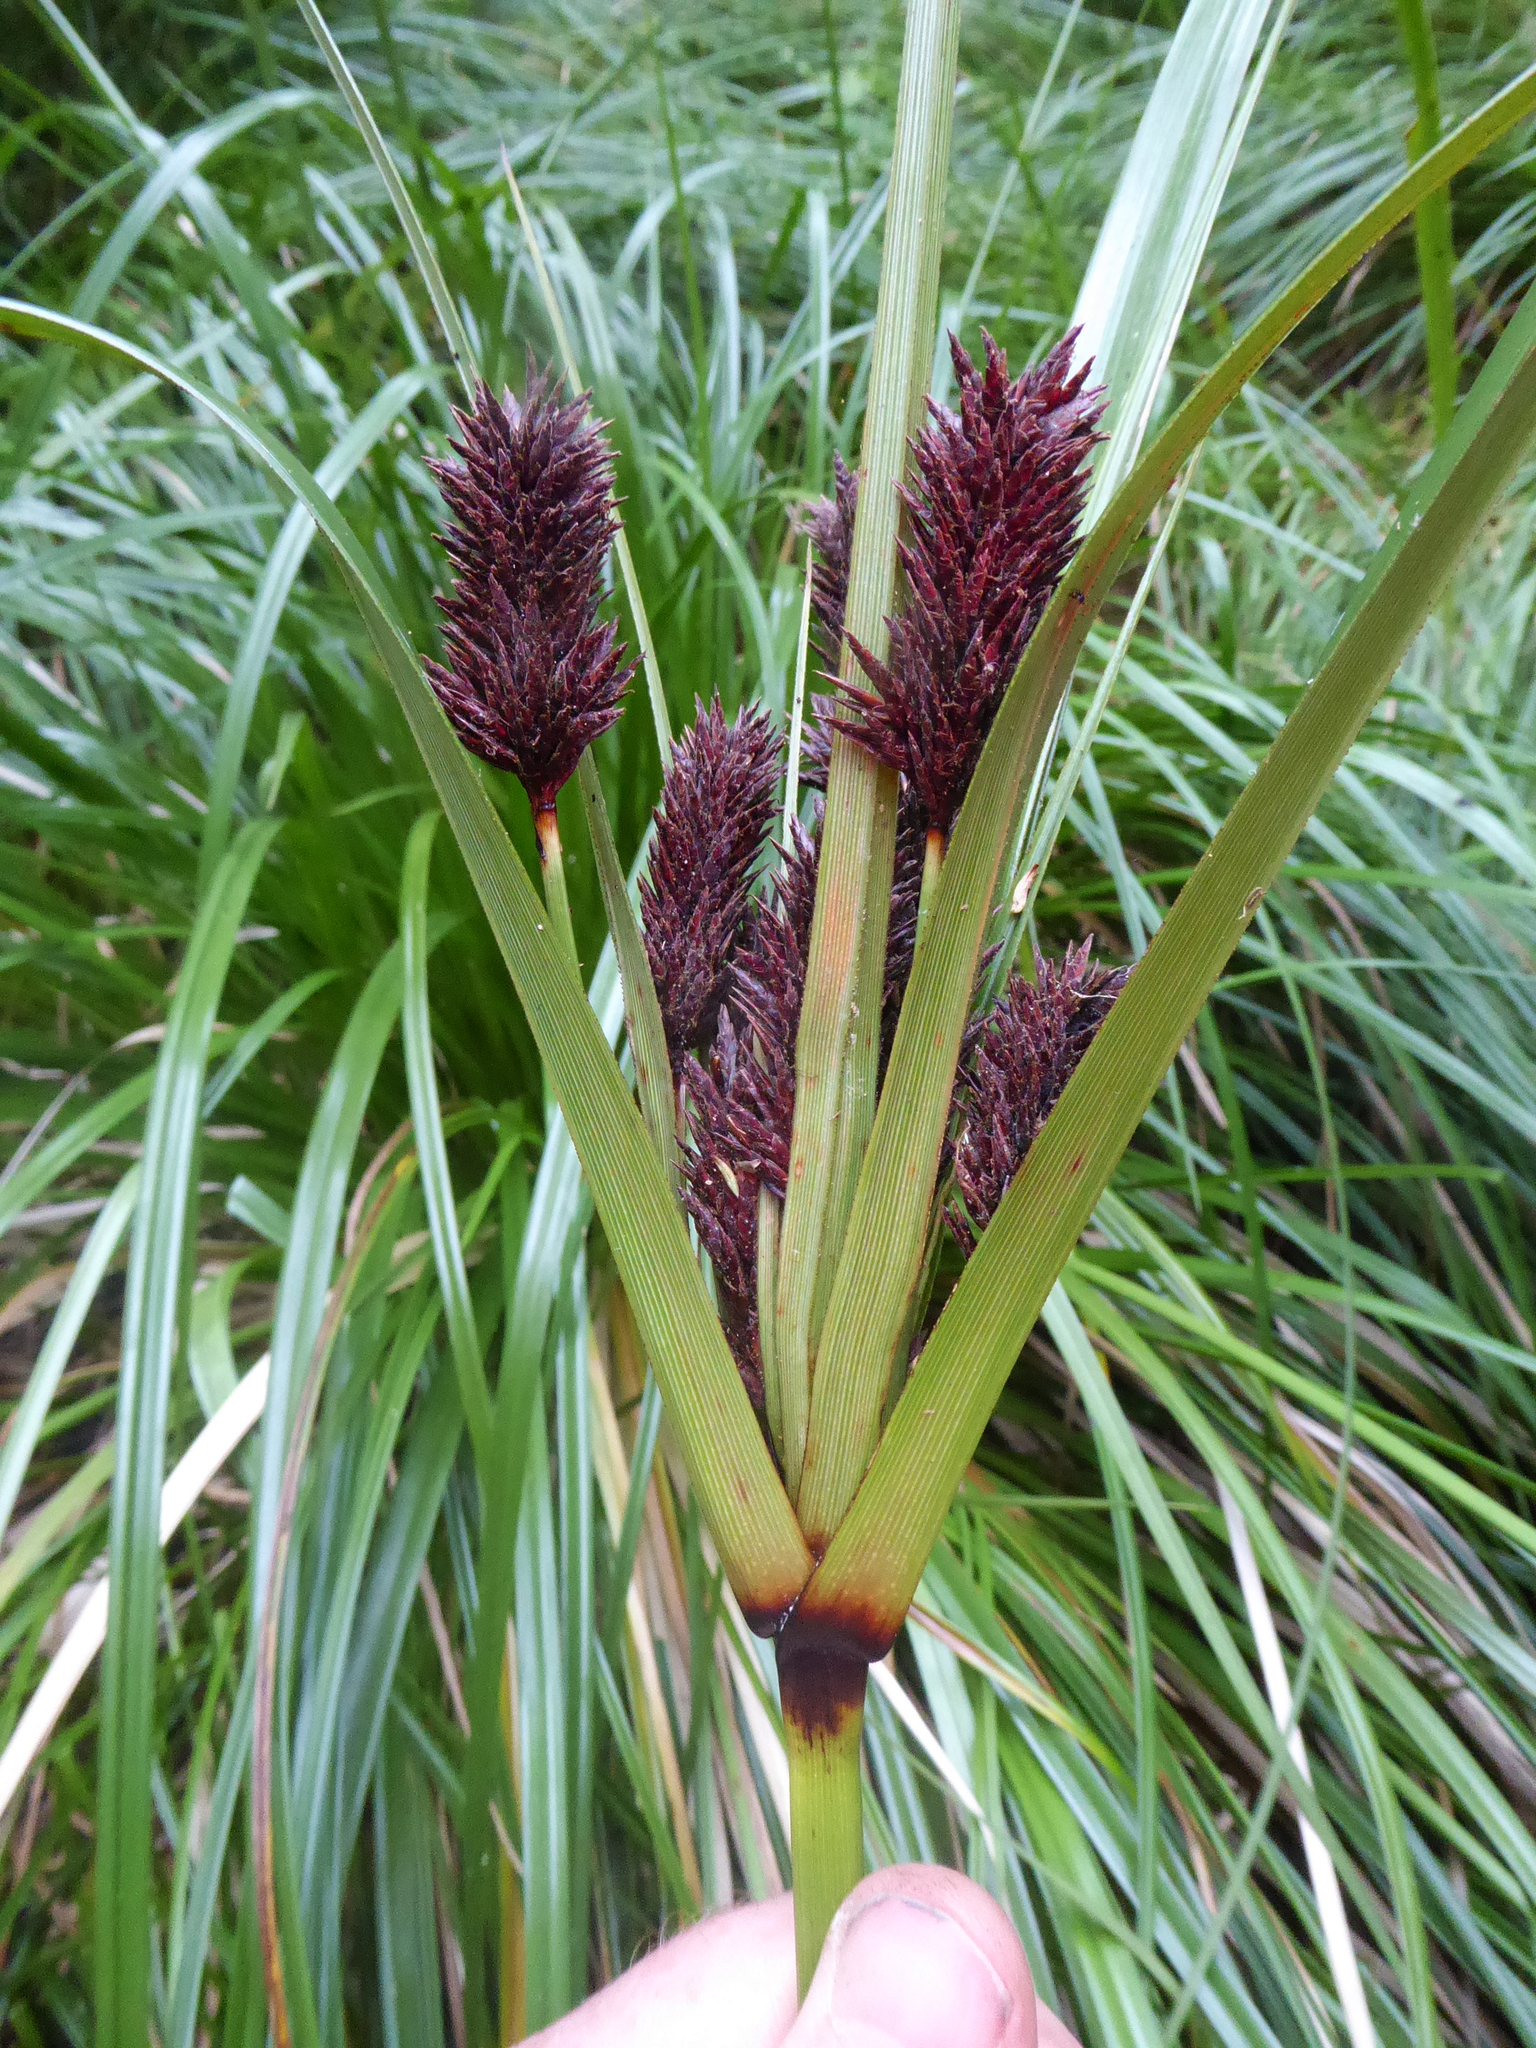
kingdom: Plantae
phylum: Tracheophyta
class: Liliopsida
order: Poales
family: Cyperaceae
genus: Cyperus
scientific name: Cyperus ustulatus
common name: Giant umbrella-sedge
